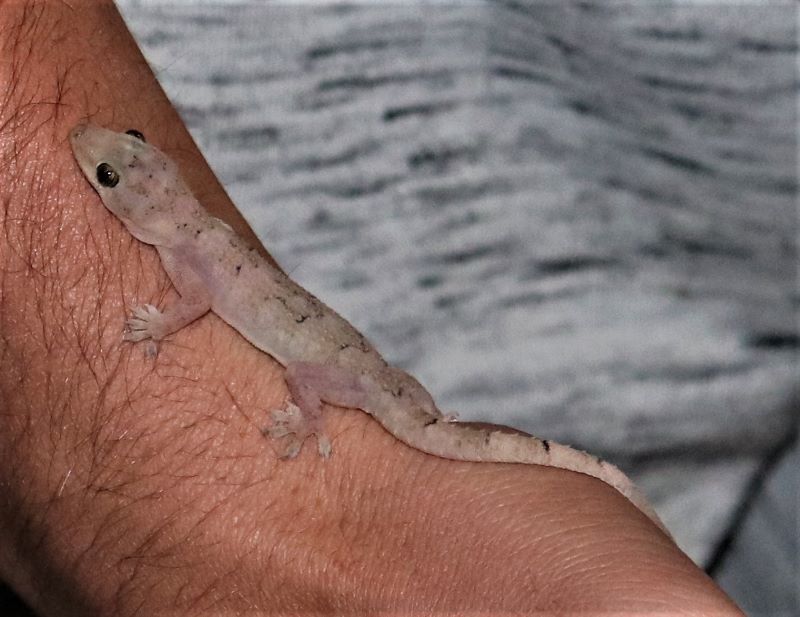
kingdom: Animalia
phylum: Chordata
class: Squamata
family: Gekkonidae
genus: Hemidactylus
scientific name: Hemidactylus mabouia
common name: House gecko
